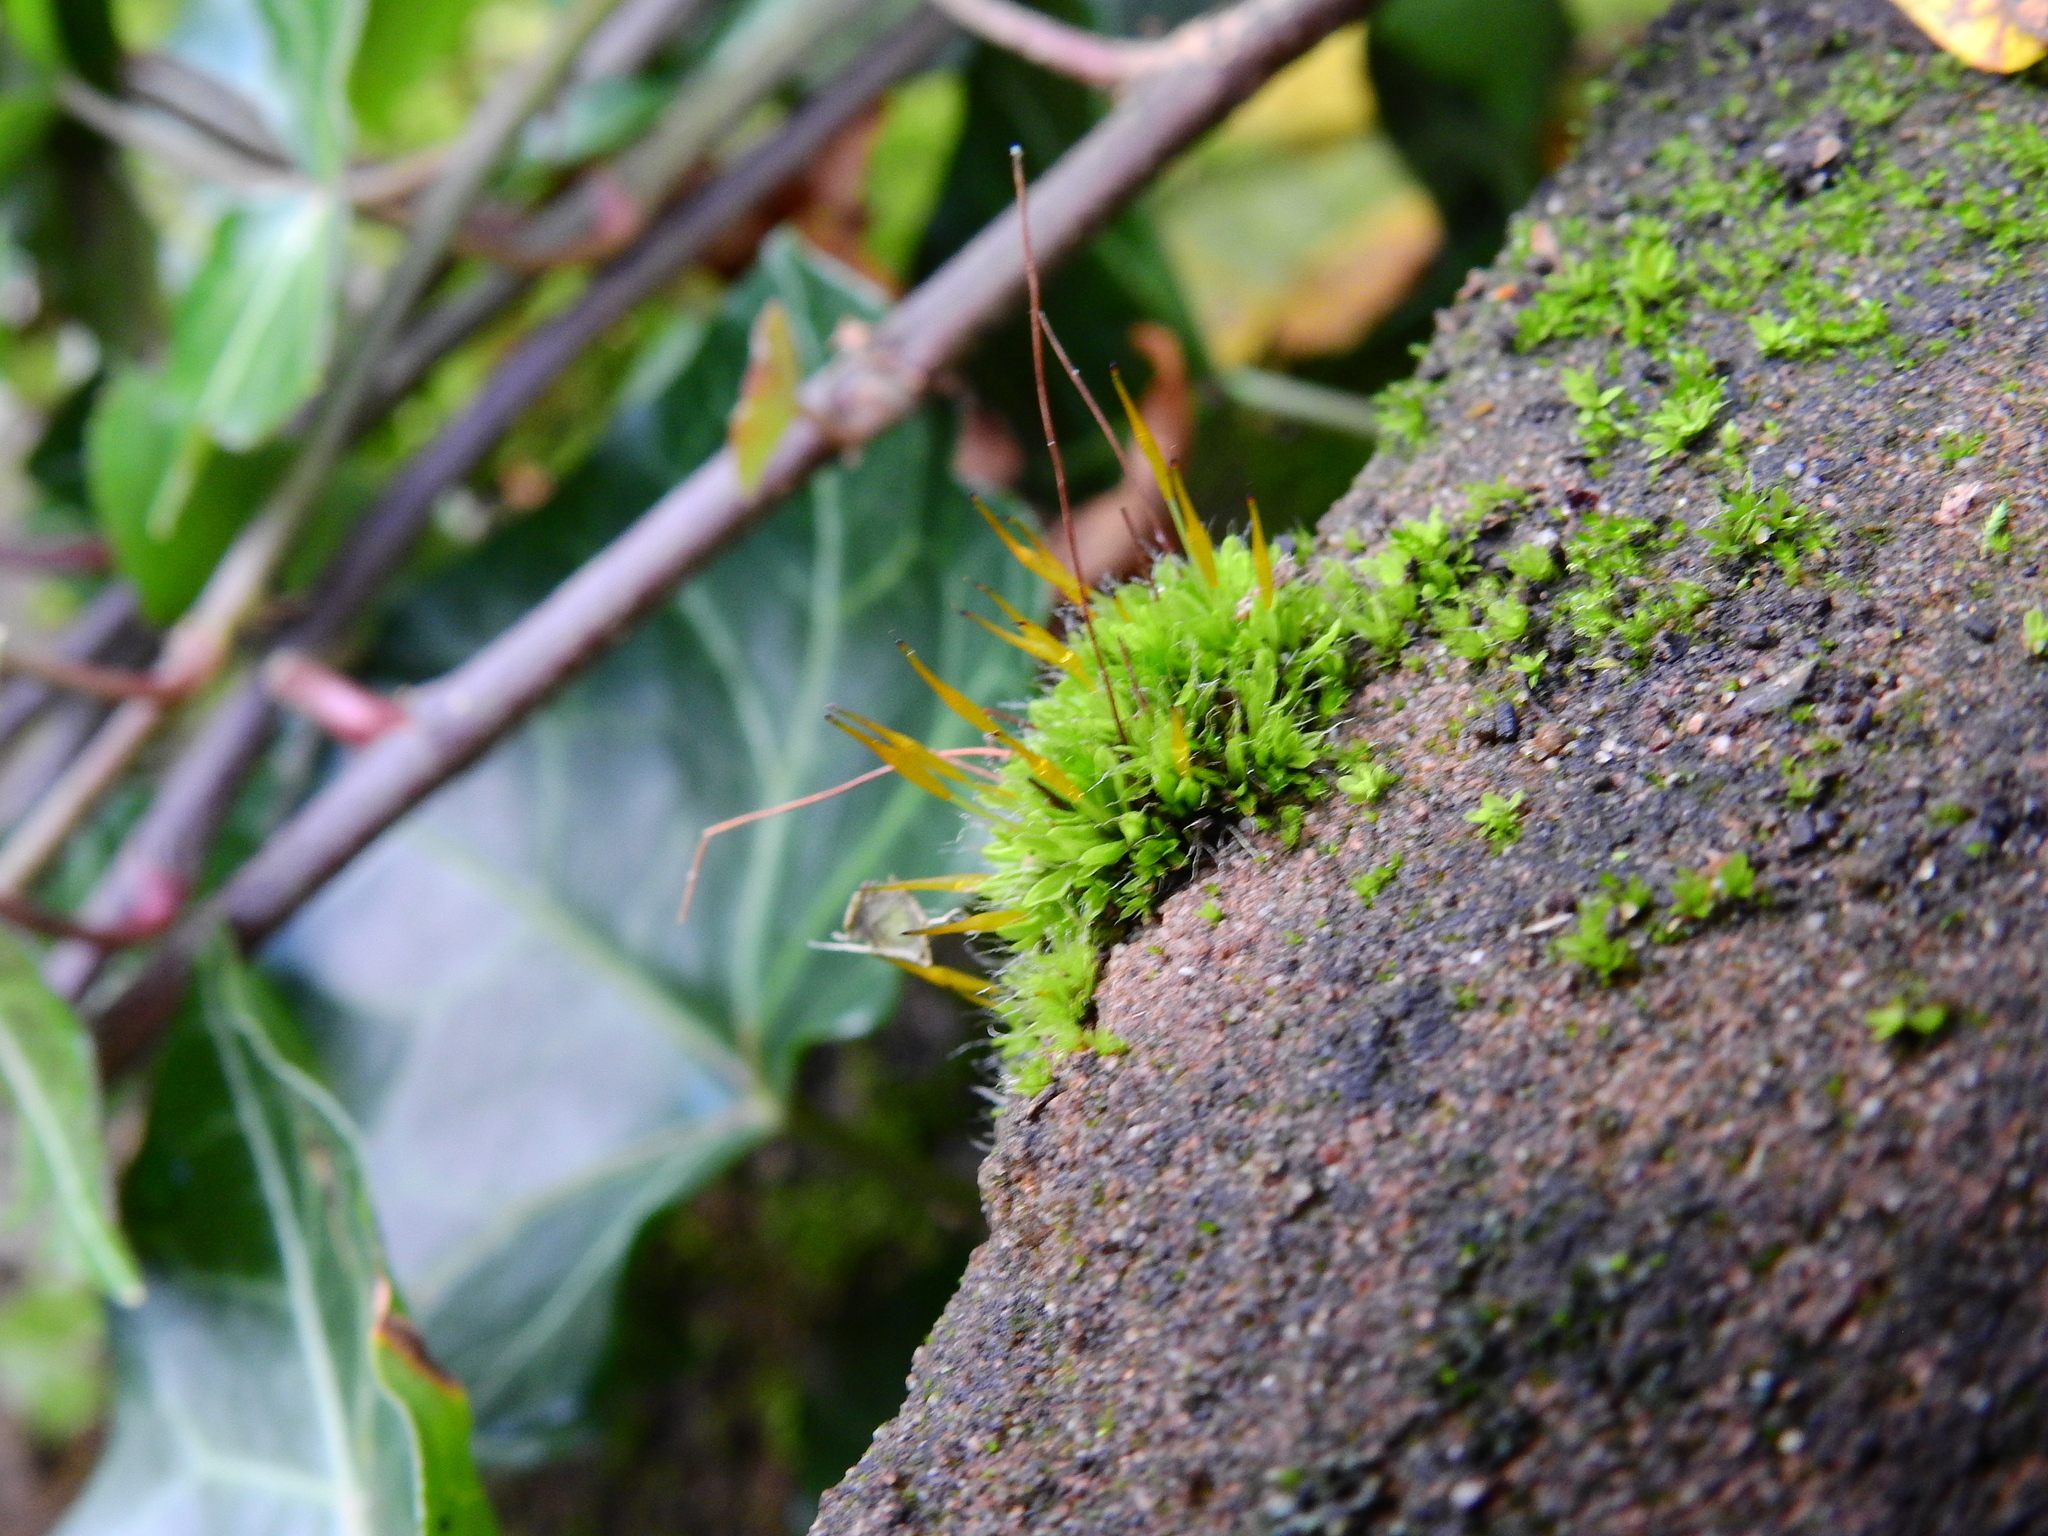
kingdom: Plantae
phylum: Bryophyta
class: Bryopsida
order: Pottiales
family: Pottiaceae
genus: Tortula
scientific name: Tortula muralis
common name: Wall screw-moss
